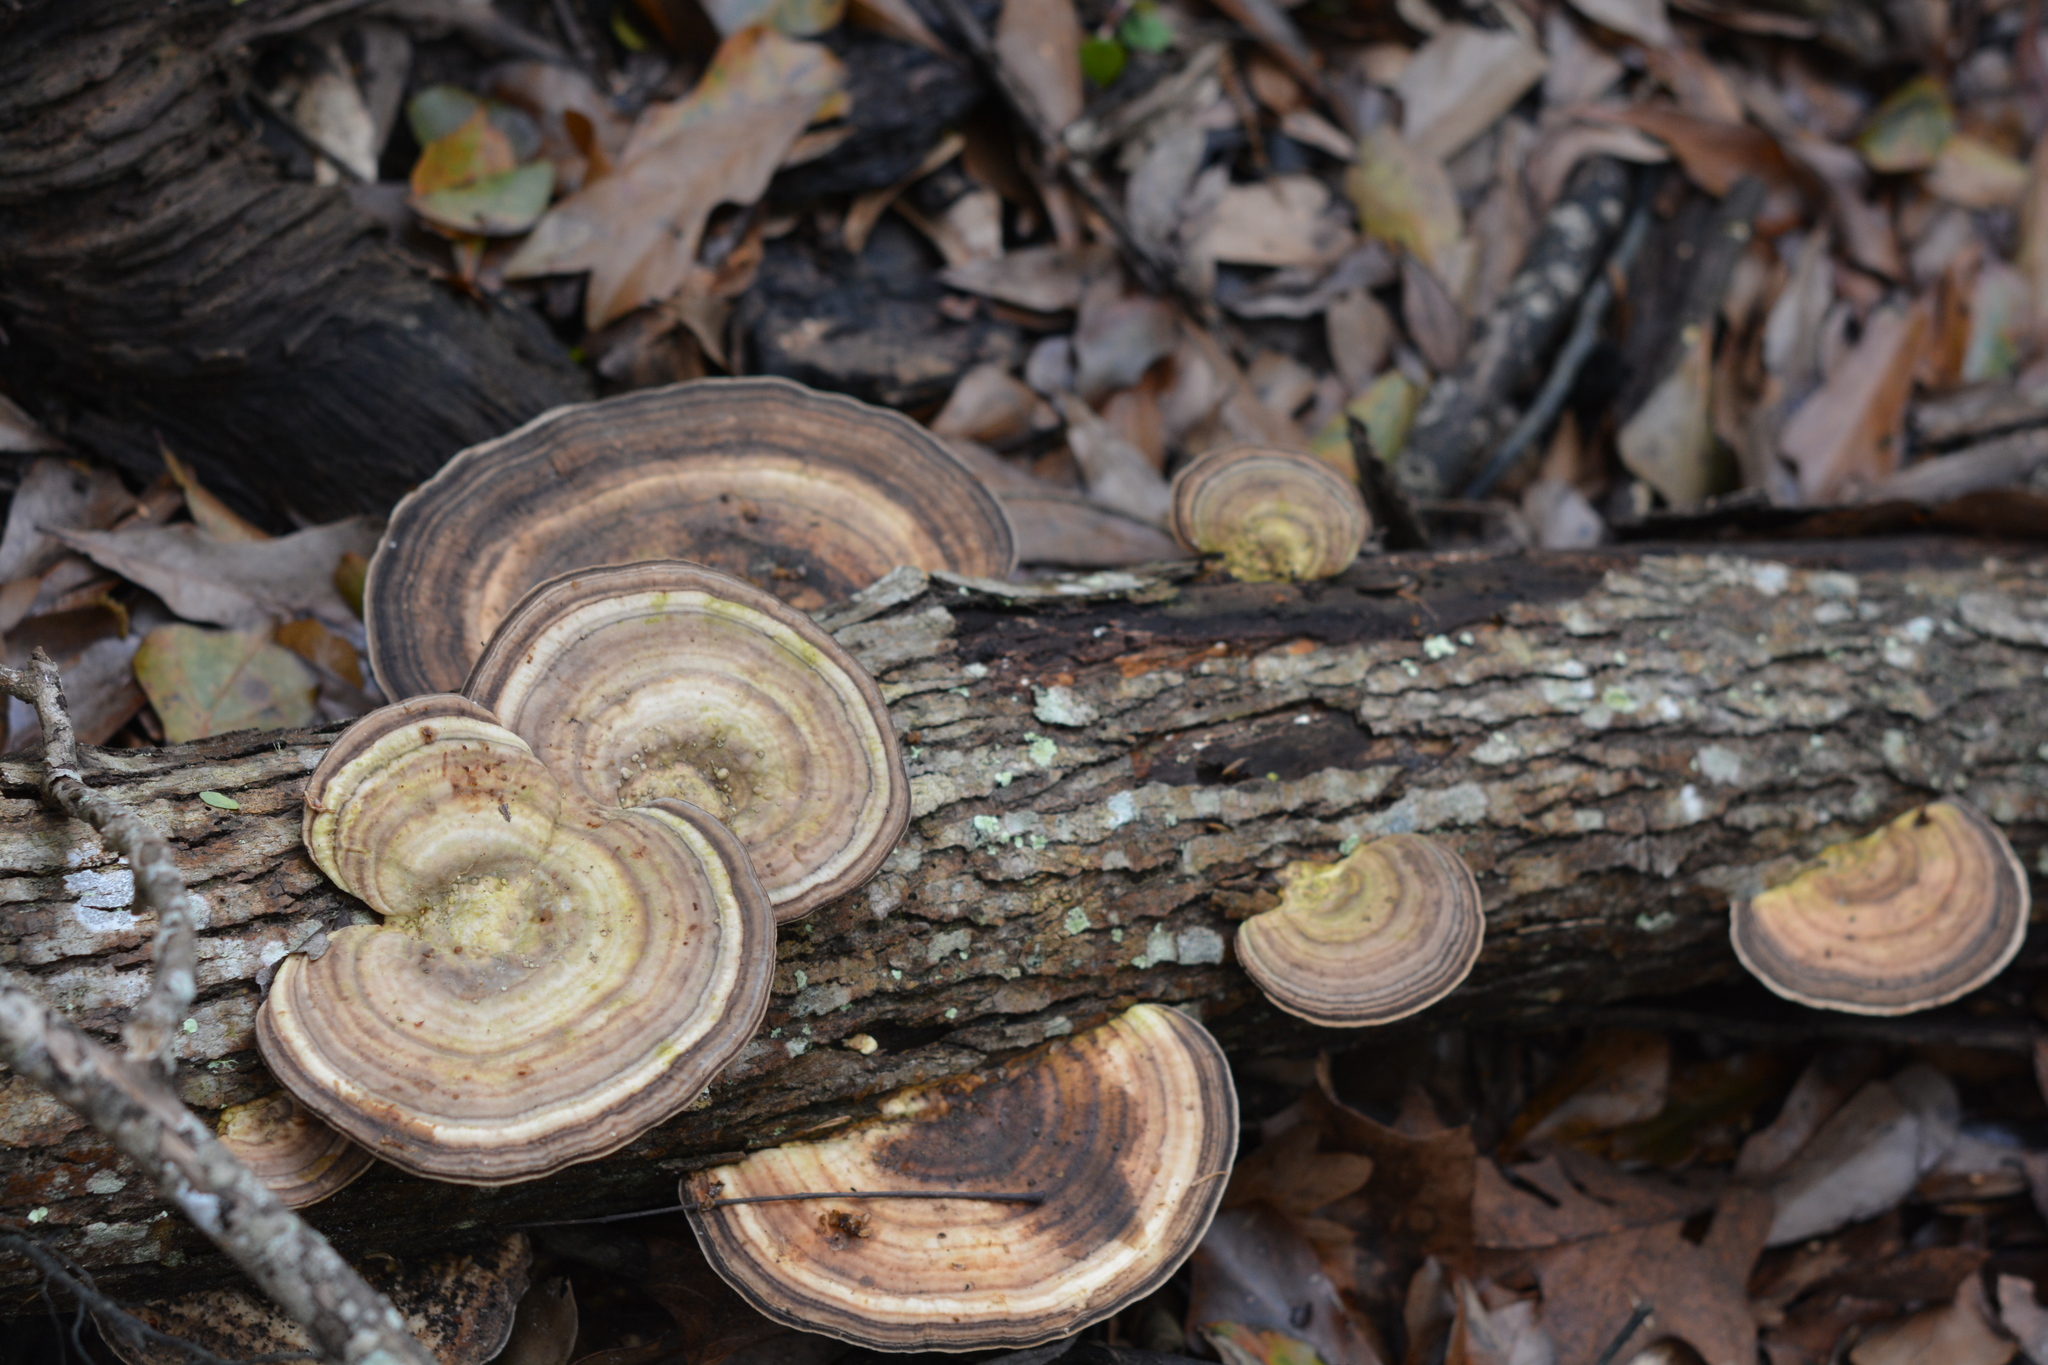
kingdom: Fungi
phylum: Basidiomycota
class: Agaricomycetes
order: Polyporales
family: Polyporaceae
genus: Trametes
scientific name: Trametes versicolor
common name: Turkeytail
